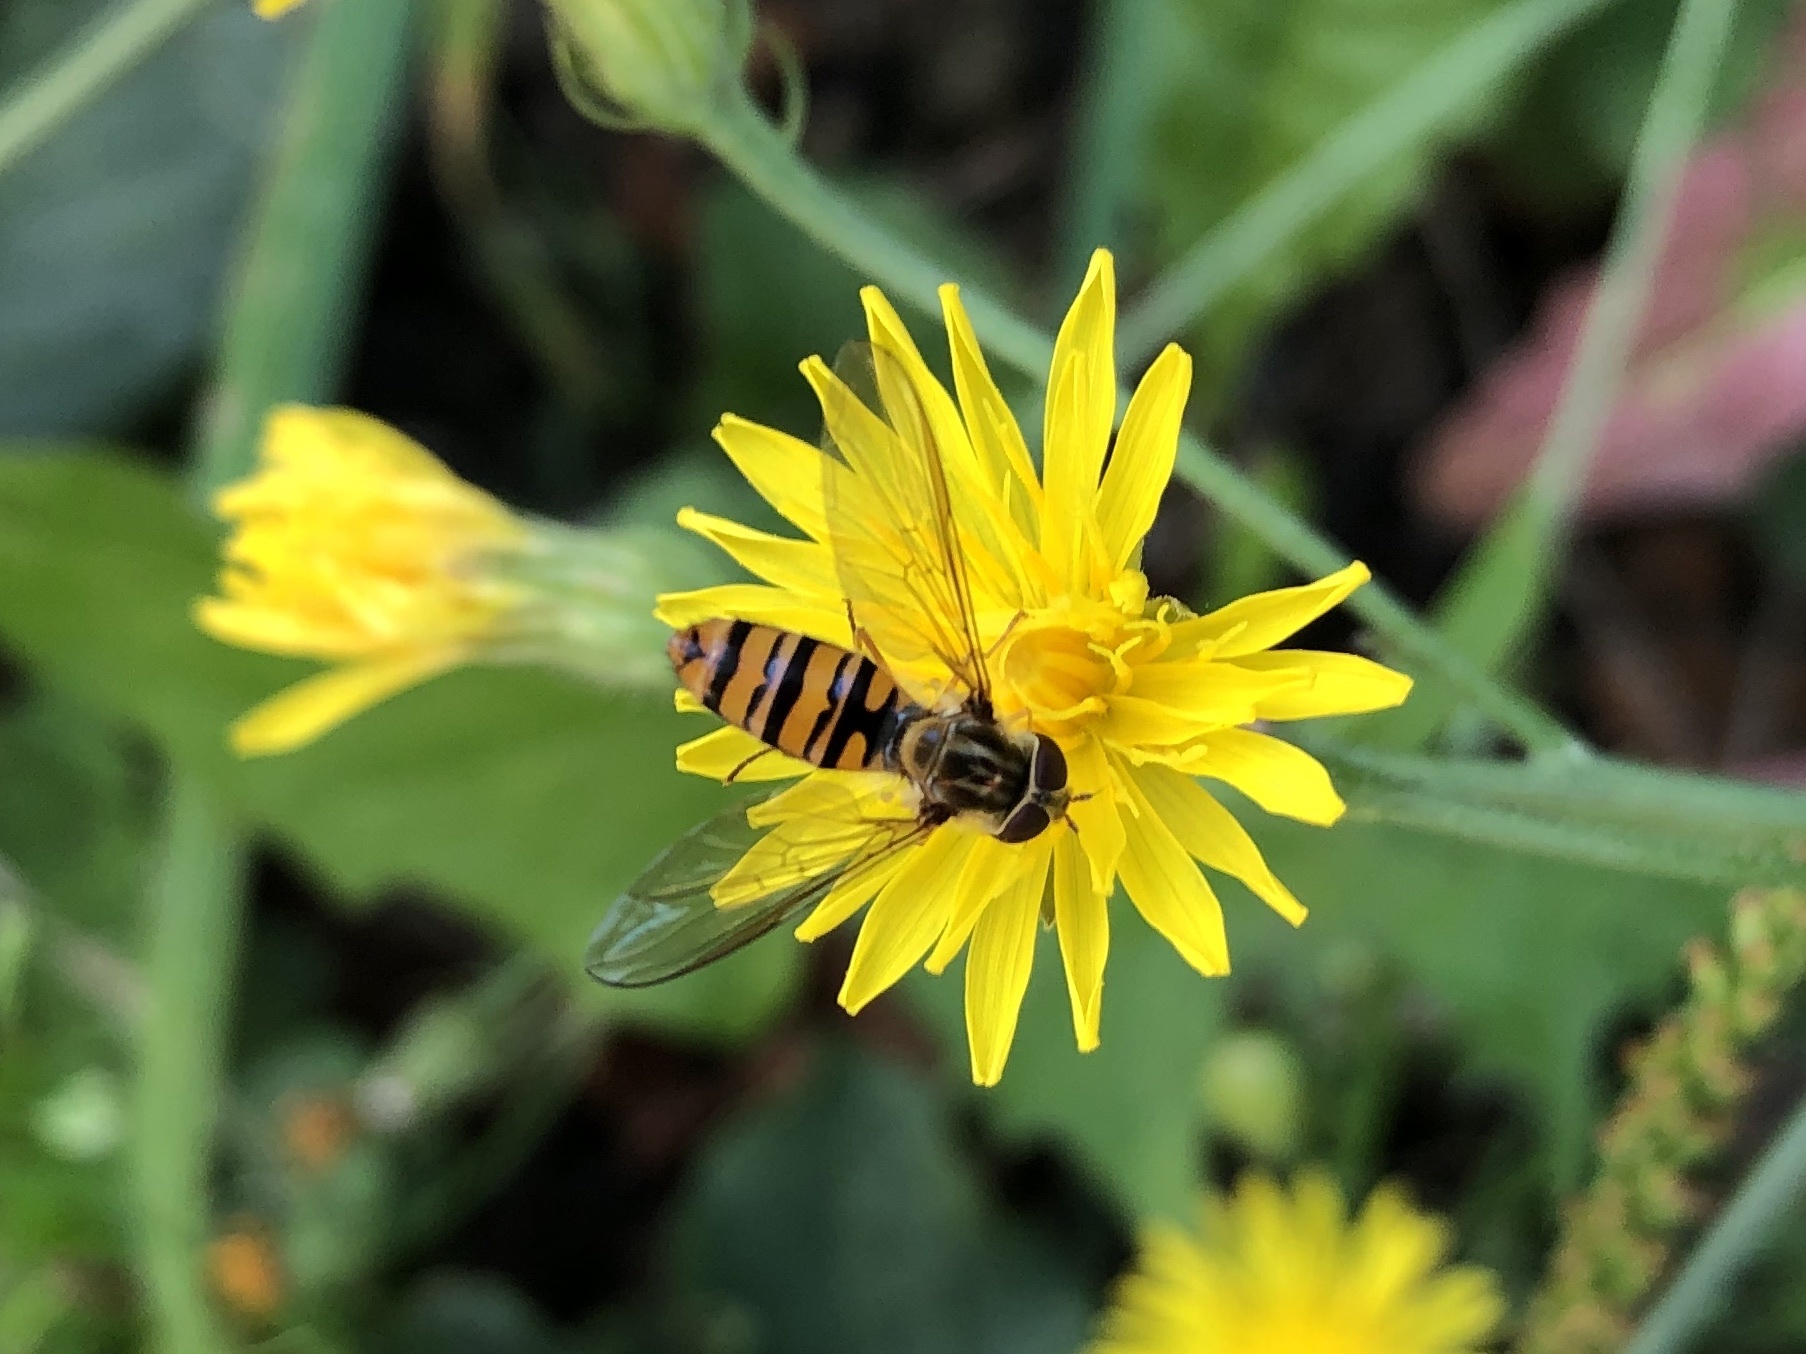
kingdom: Animalia
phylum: Arthropoda
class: Insecta
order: Diptera
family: Syrphidae
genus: Episyrphus
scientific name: Episyrphus balteatus
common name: Marmalade hoverfly
